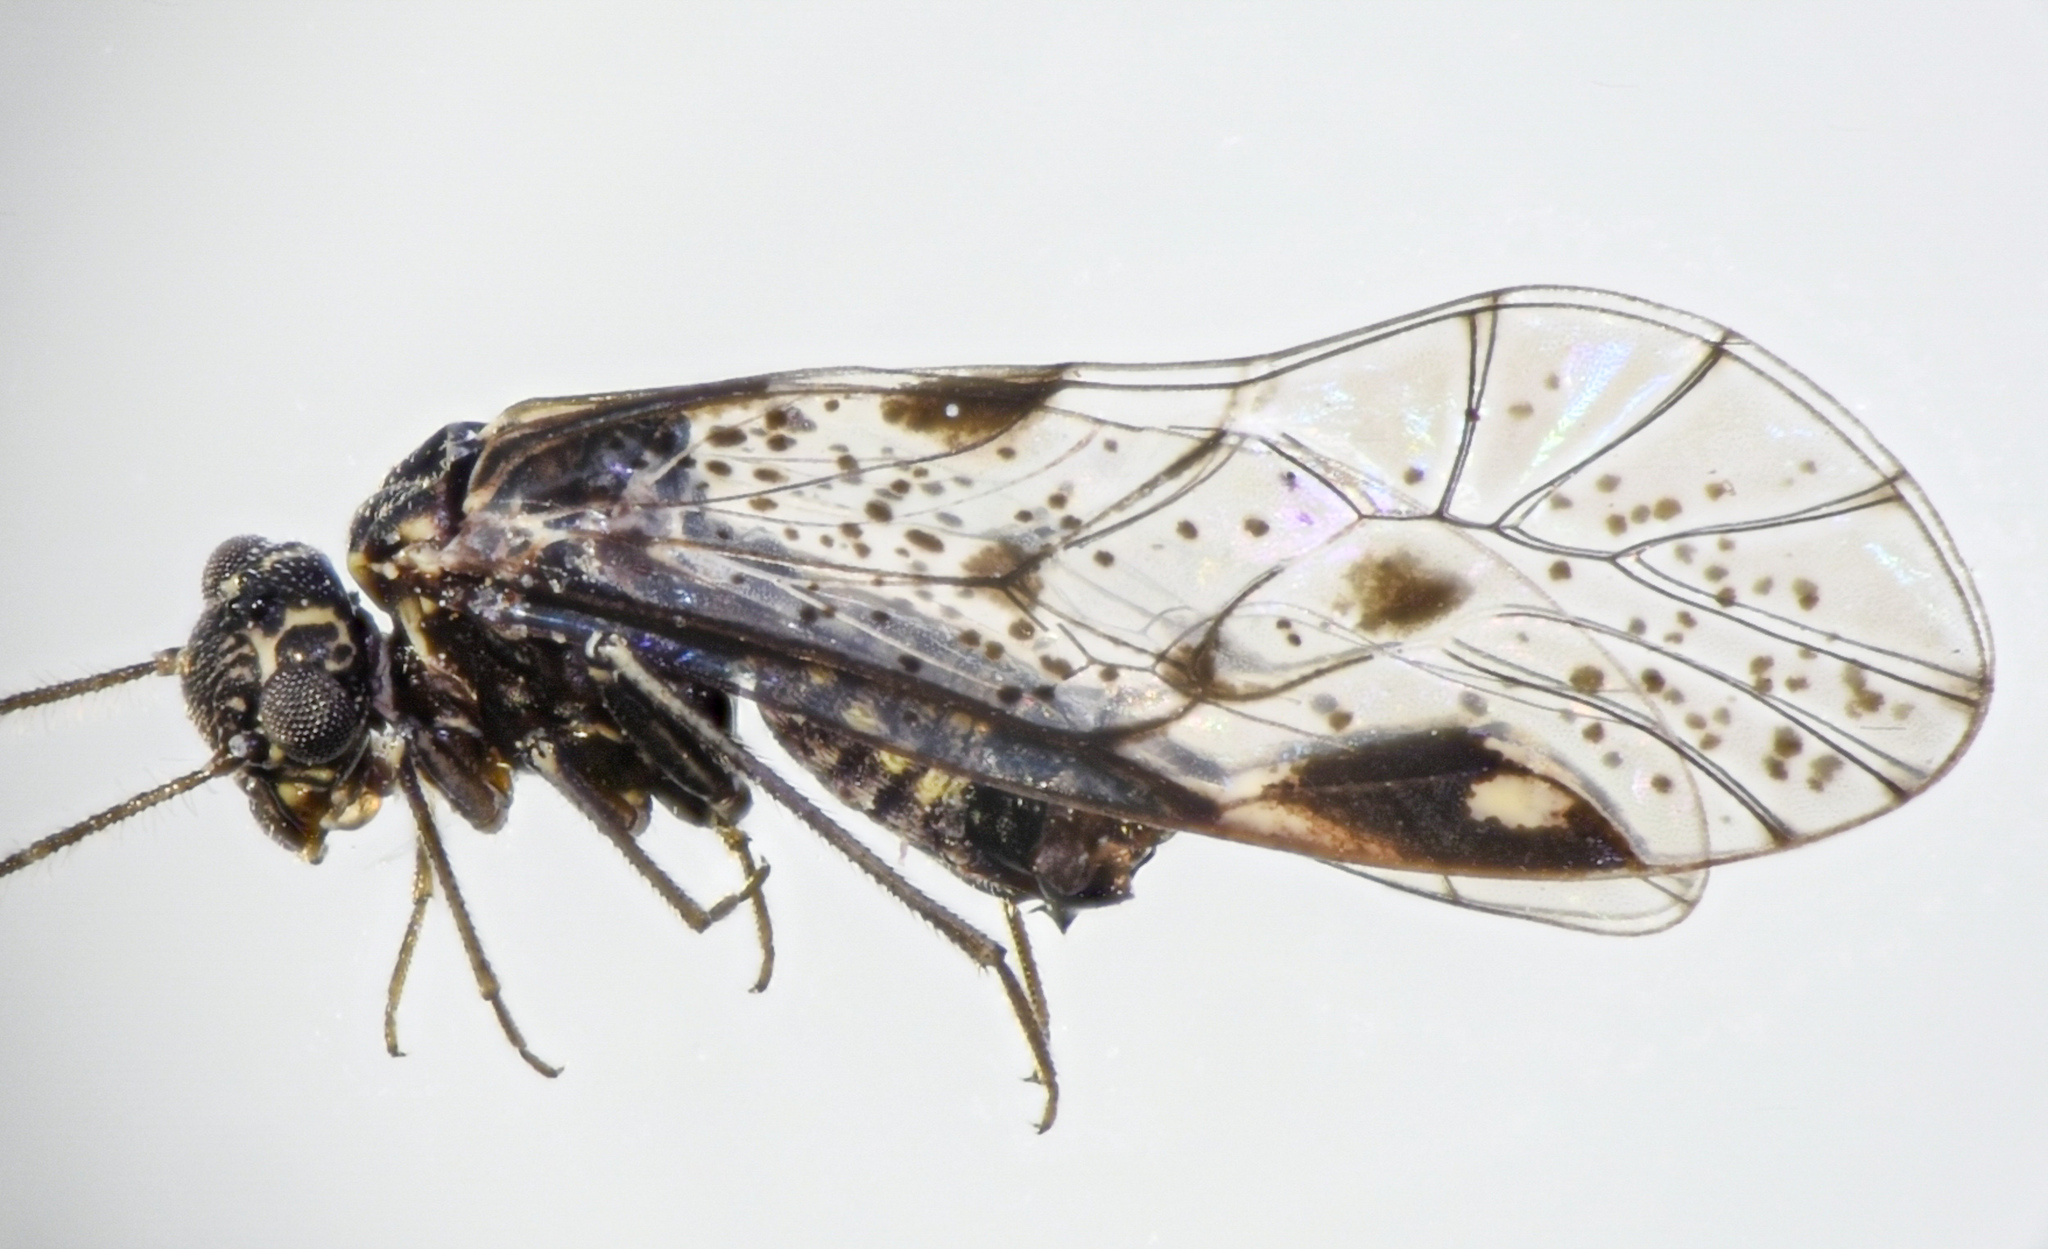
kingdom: Animalia
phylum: Arthropoda
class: Insecta
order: Psocodea
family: Psocidae
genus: Loensia
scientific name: Loensia conspersa
